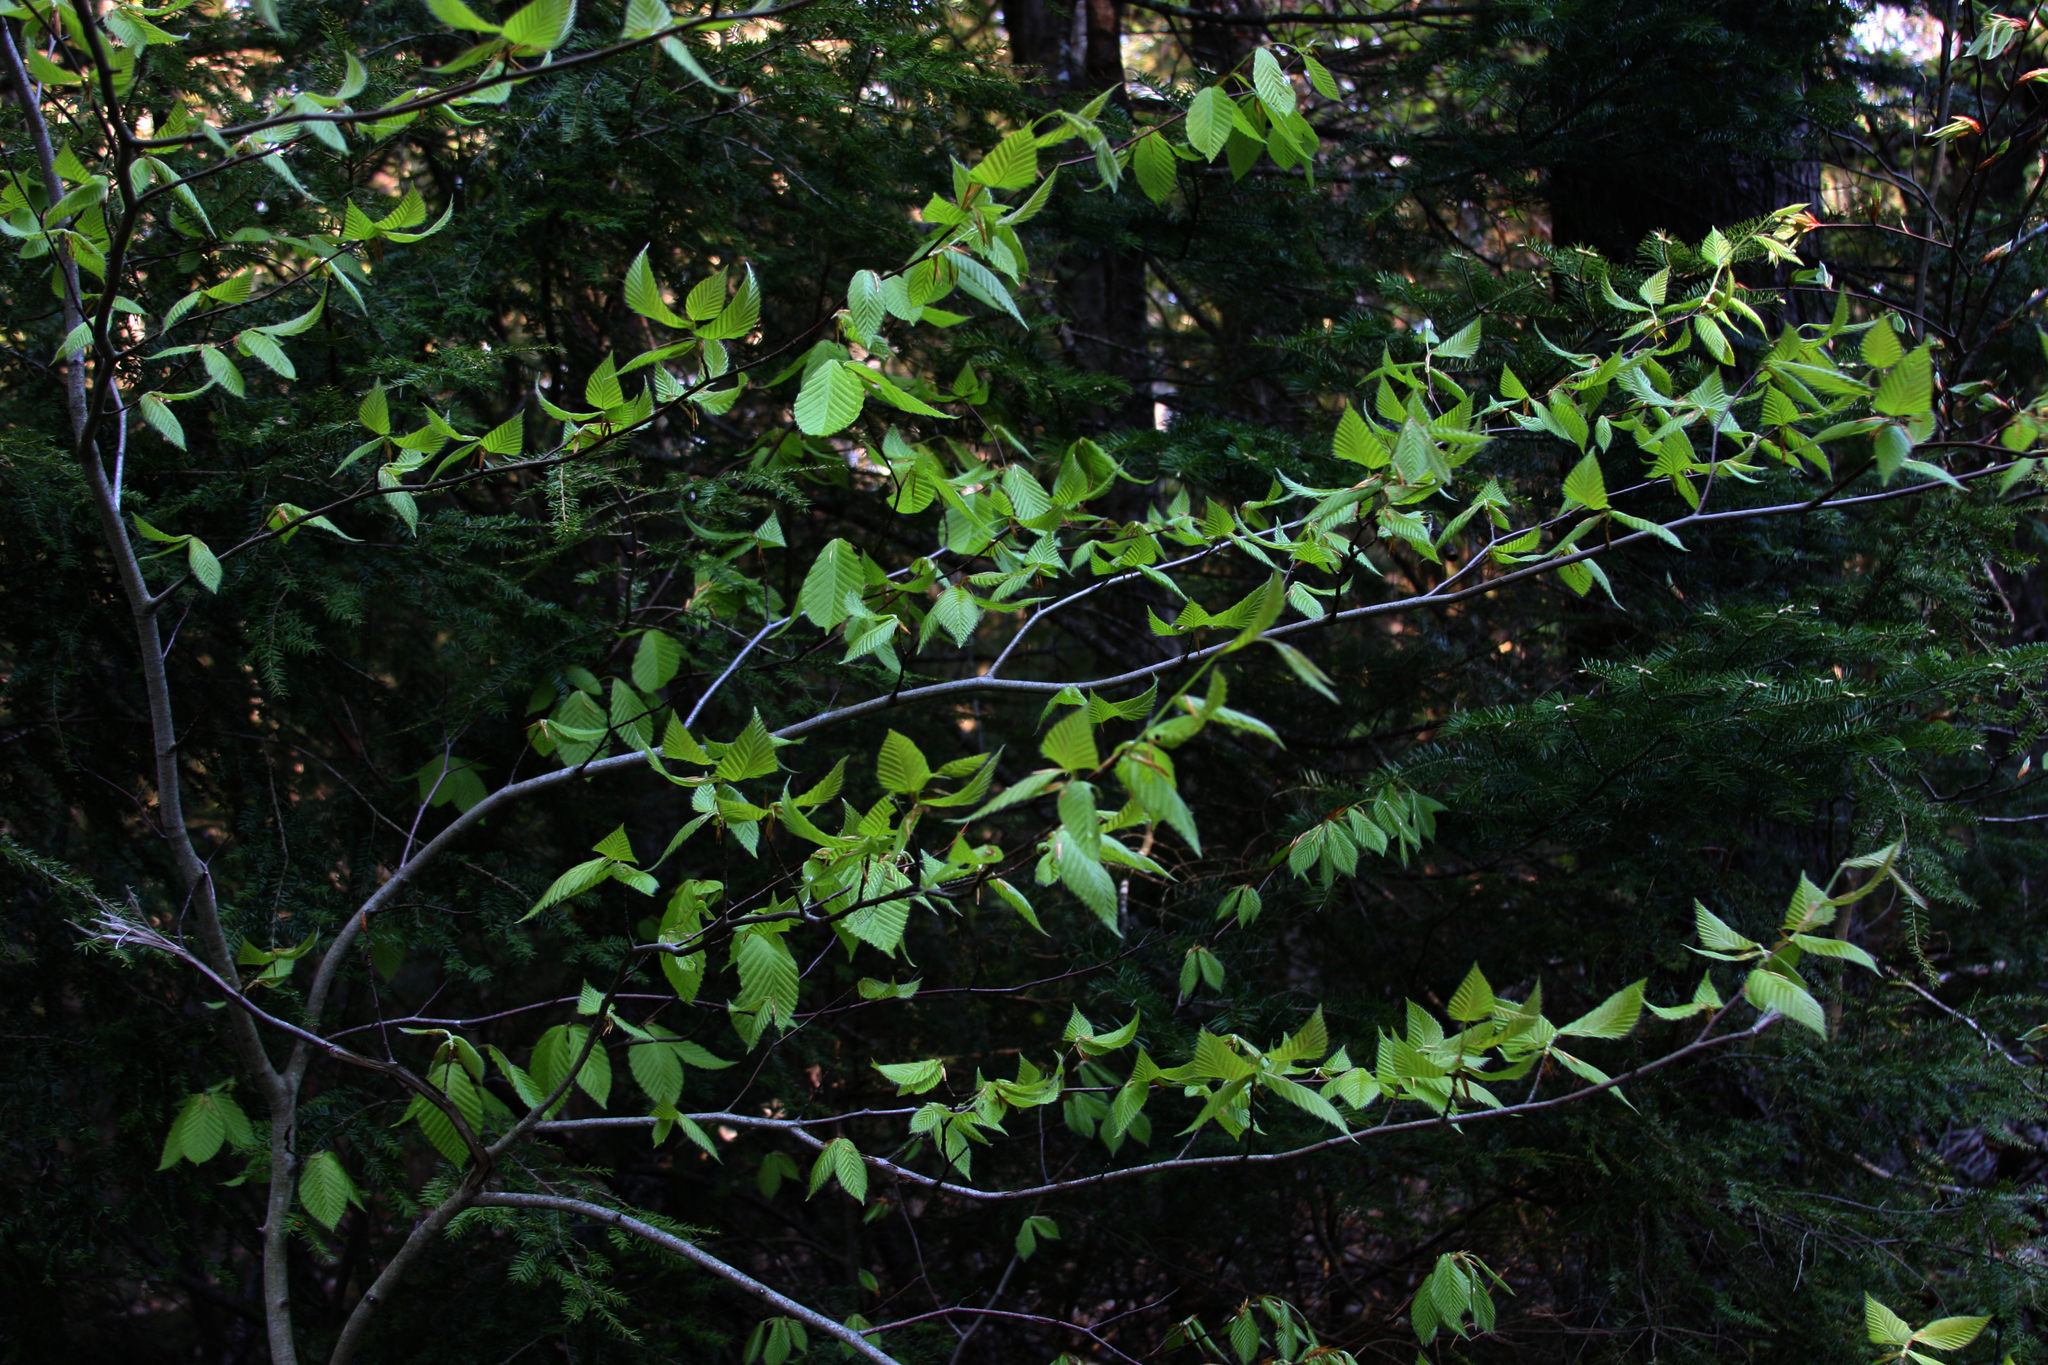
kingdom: Plantae
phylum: Tracheophyta
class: Magnoliopsida
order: Fagales
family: Fagaceae
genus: Fagus
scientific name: Fagus grandifolia
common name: American beech
